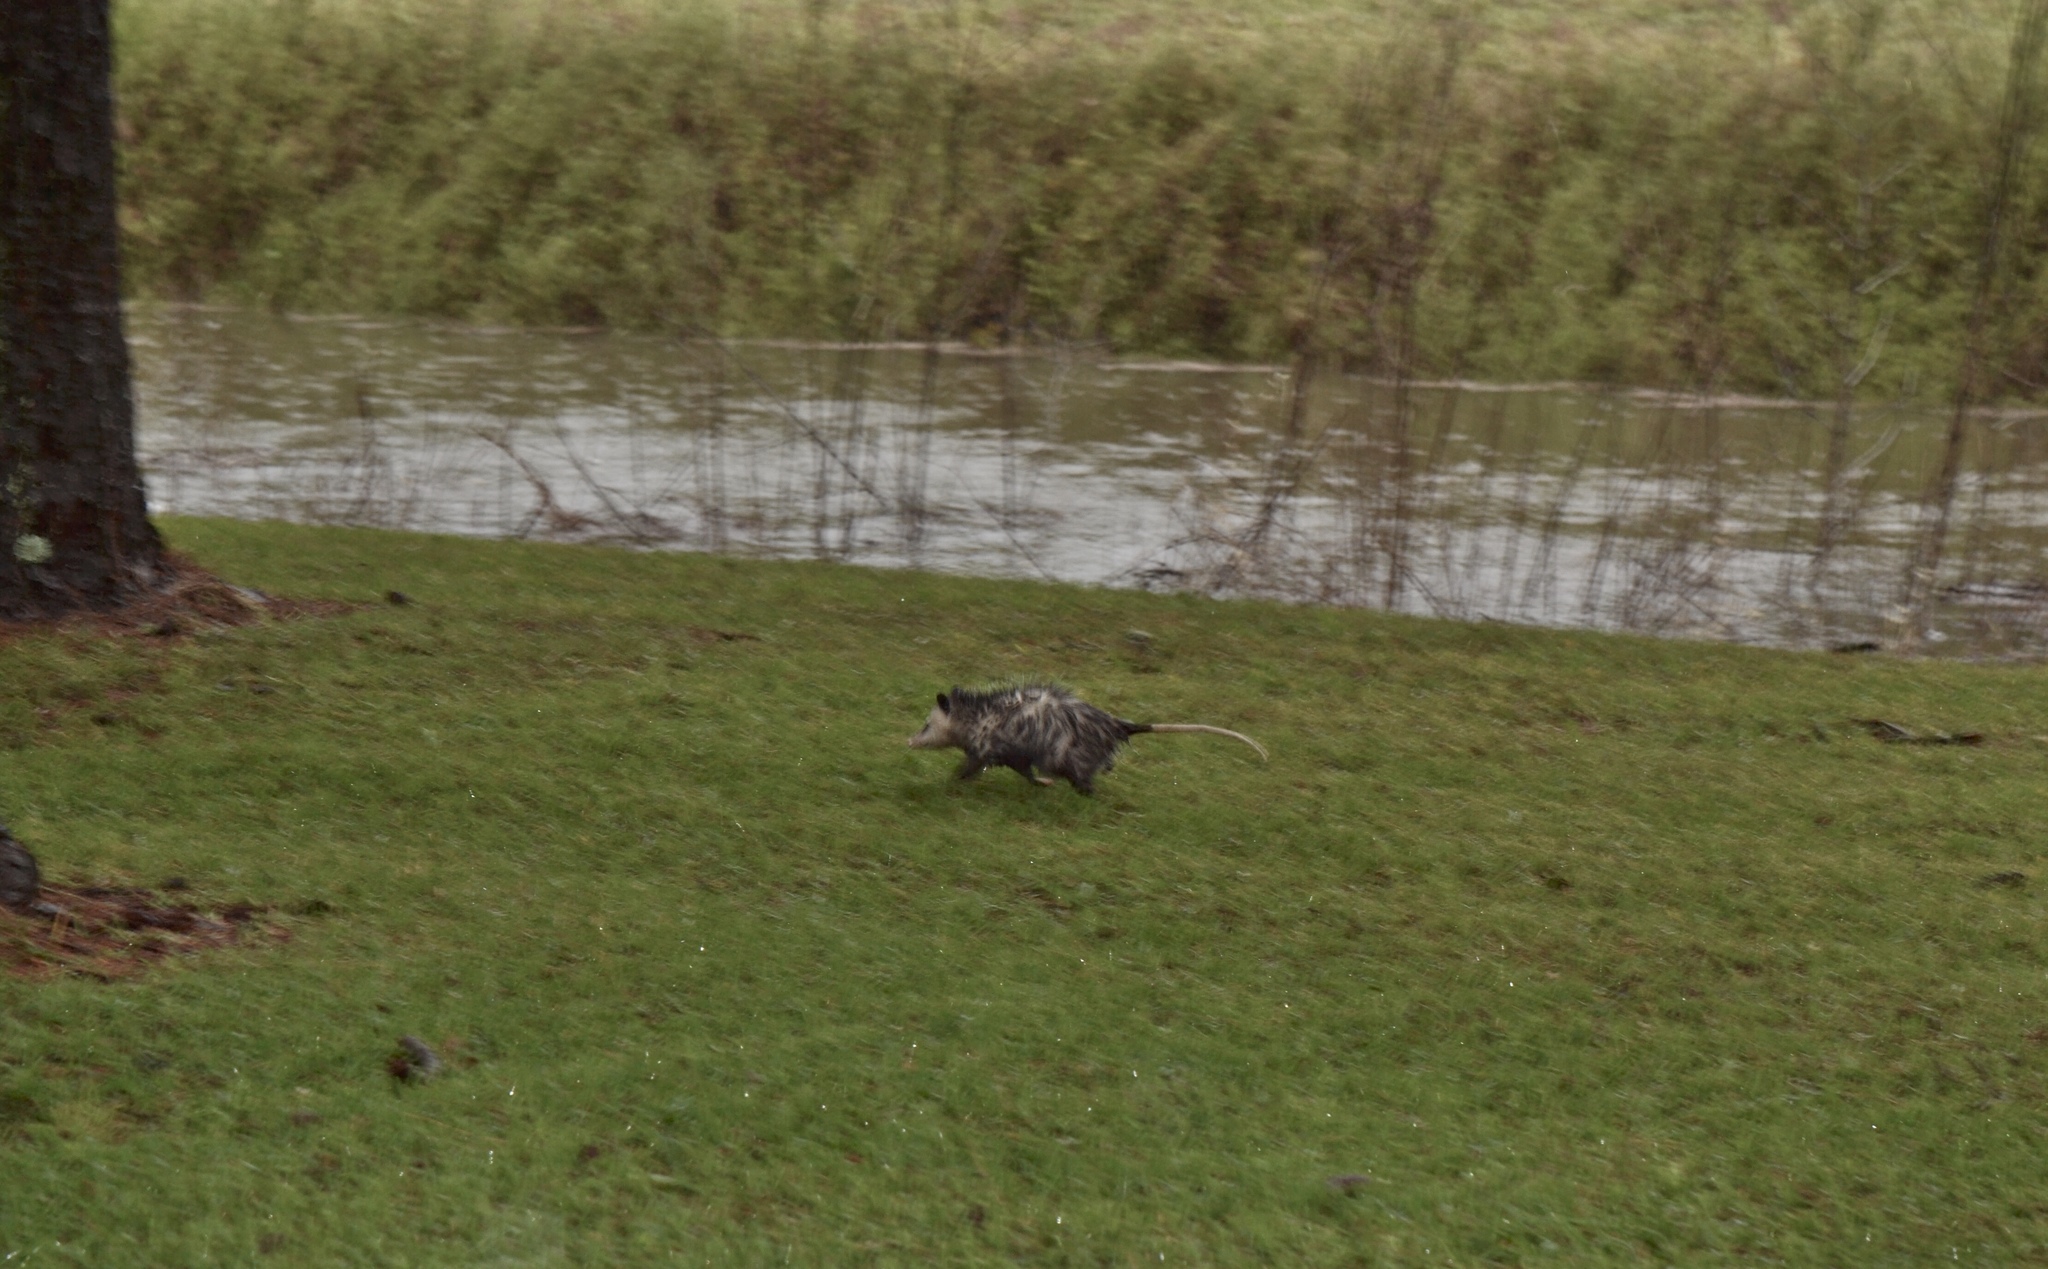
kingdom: Animalia
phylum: Chordata
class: Mammalia
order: Didelphimorphia
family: Didelphidae
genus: Didelphis
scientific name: Didelphis virginiana
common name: Virginia opossum
